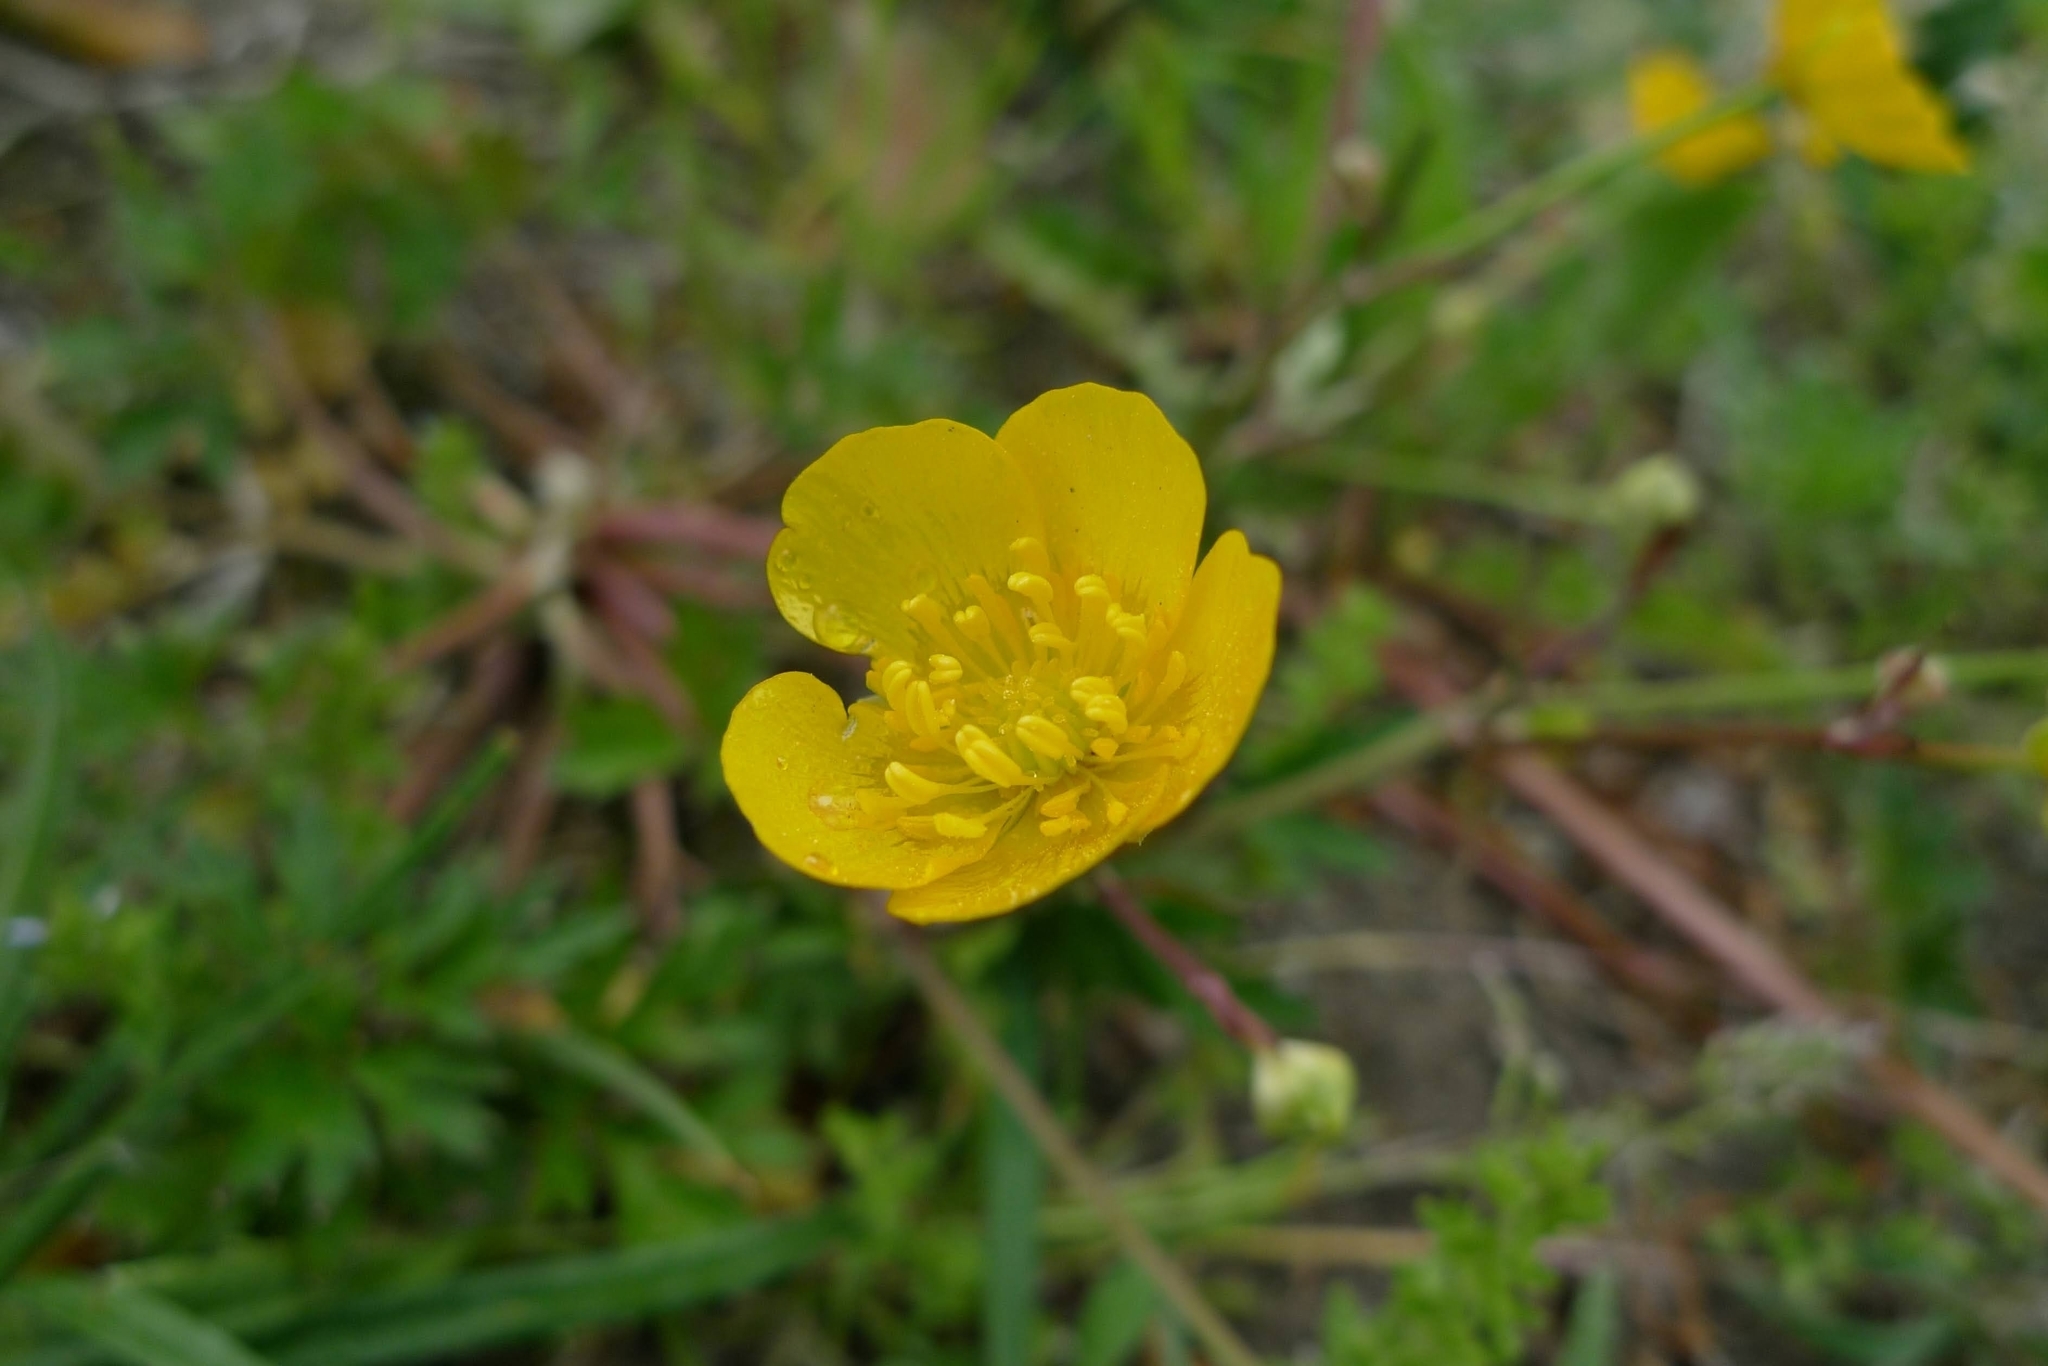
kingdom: Plantae
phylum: Tracheophyta
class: Magnoliopsida
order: Ranunculales
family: Ranunculaceae
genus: Ranunculus
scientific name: Ranunculus repens
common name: Creeping buttercup
